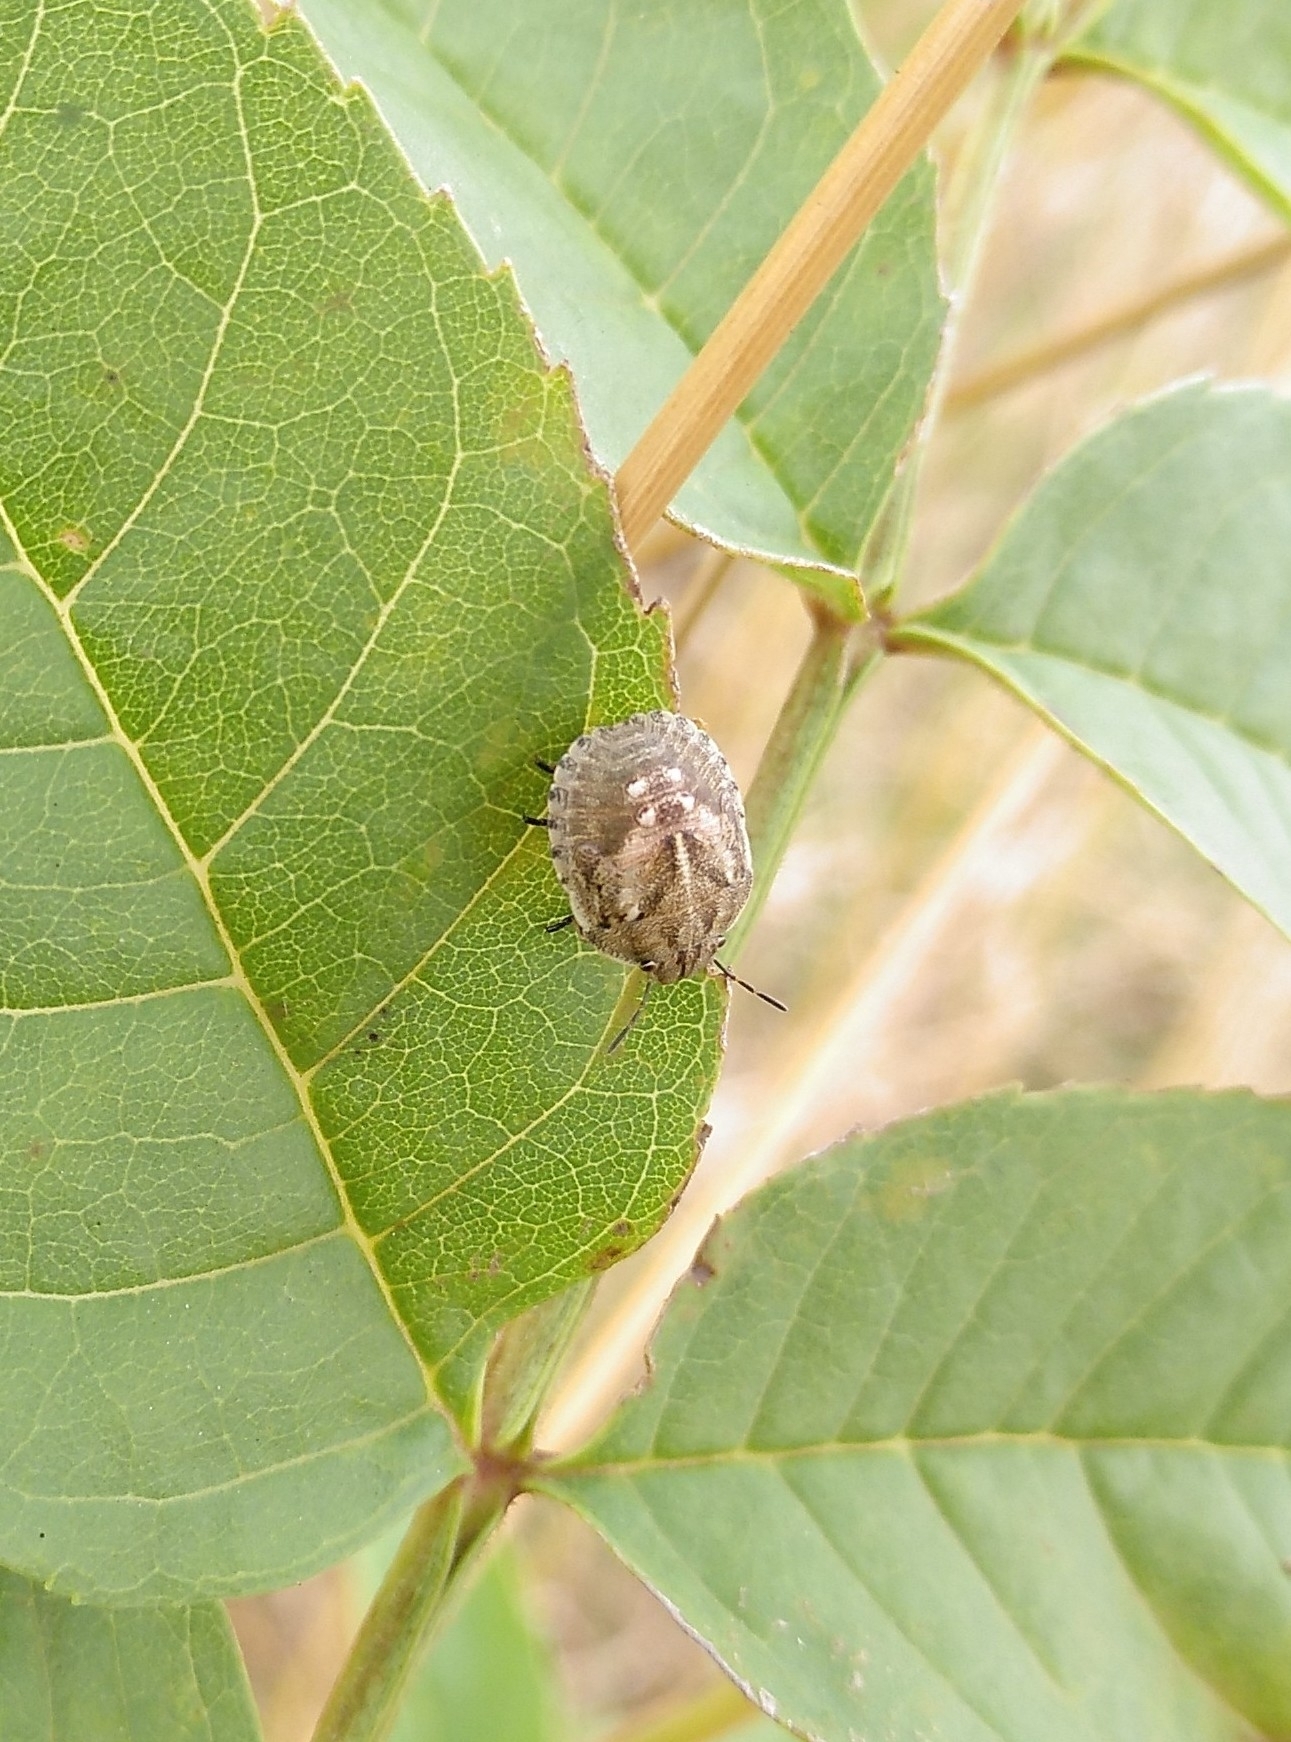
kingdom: Animalia
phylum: Arthropoda
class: Insecta
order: Hemiptera
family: Scutelleridae
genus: Eurygaster
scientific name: Eurygaster maura
